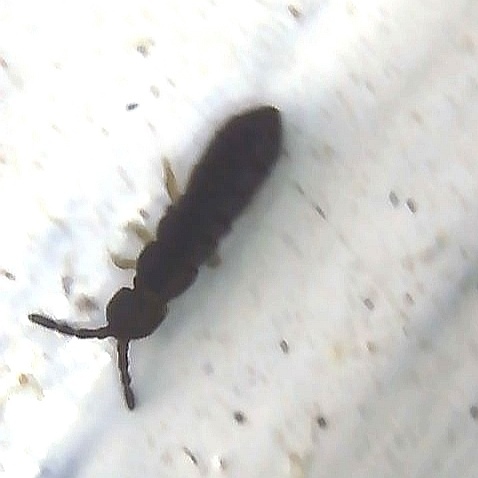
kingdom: Animalia
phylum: Arthropoda
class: Collembola
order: Entomobryomorpha
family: Isotomidae
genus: Vertagopus
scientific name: Vertagopus asiaticus
